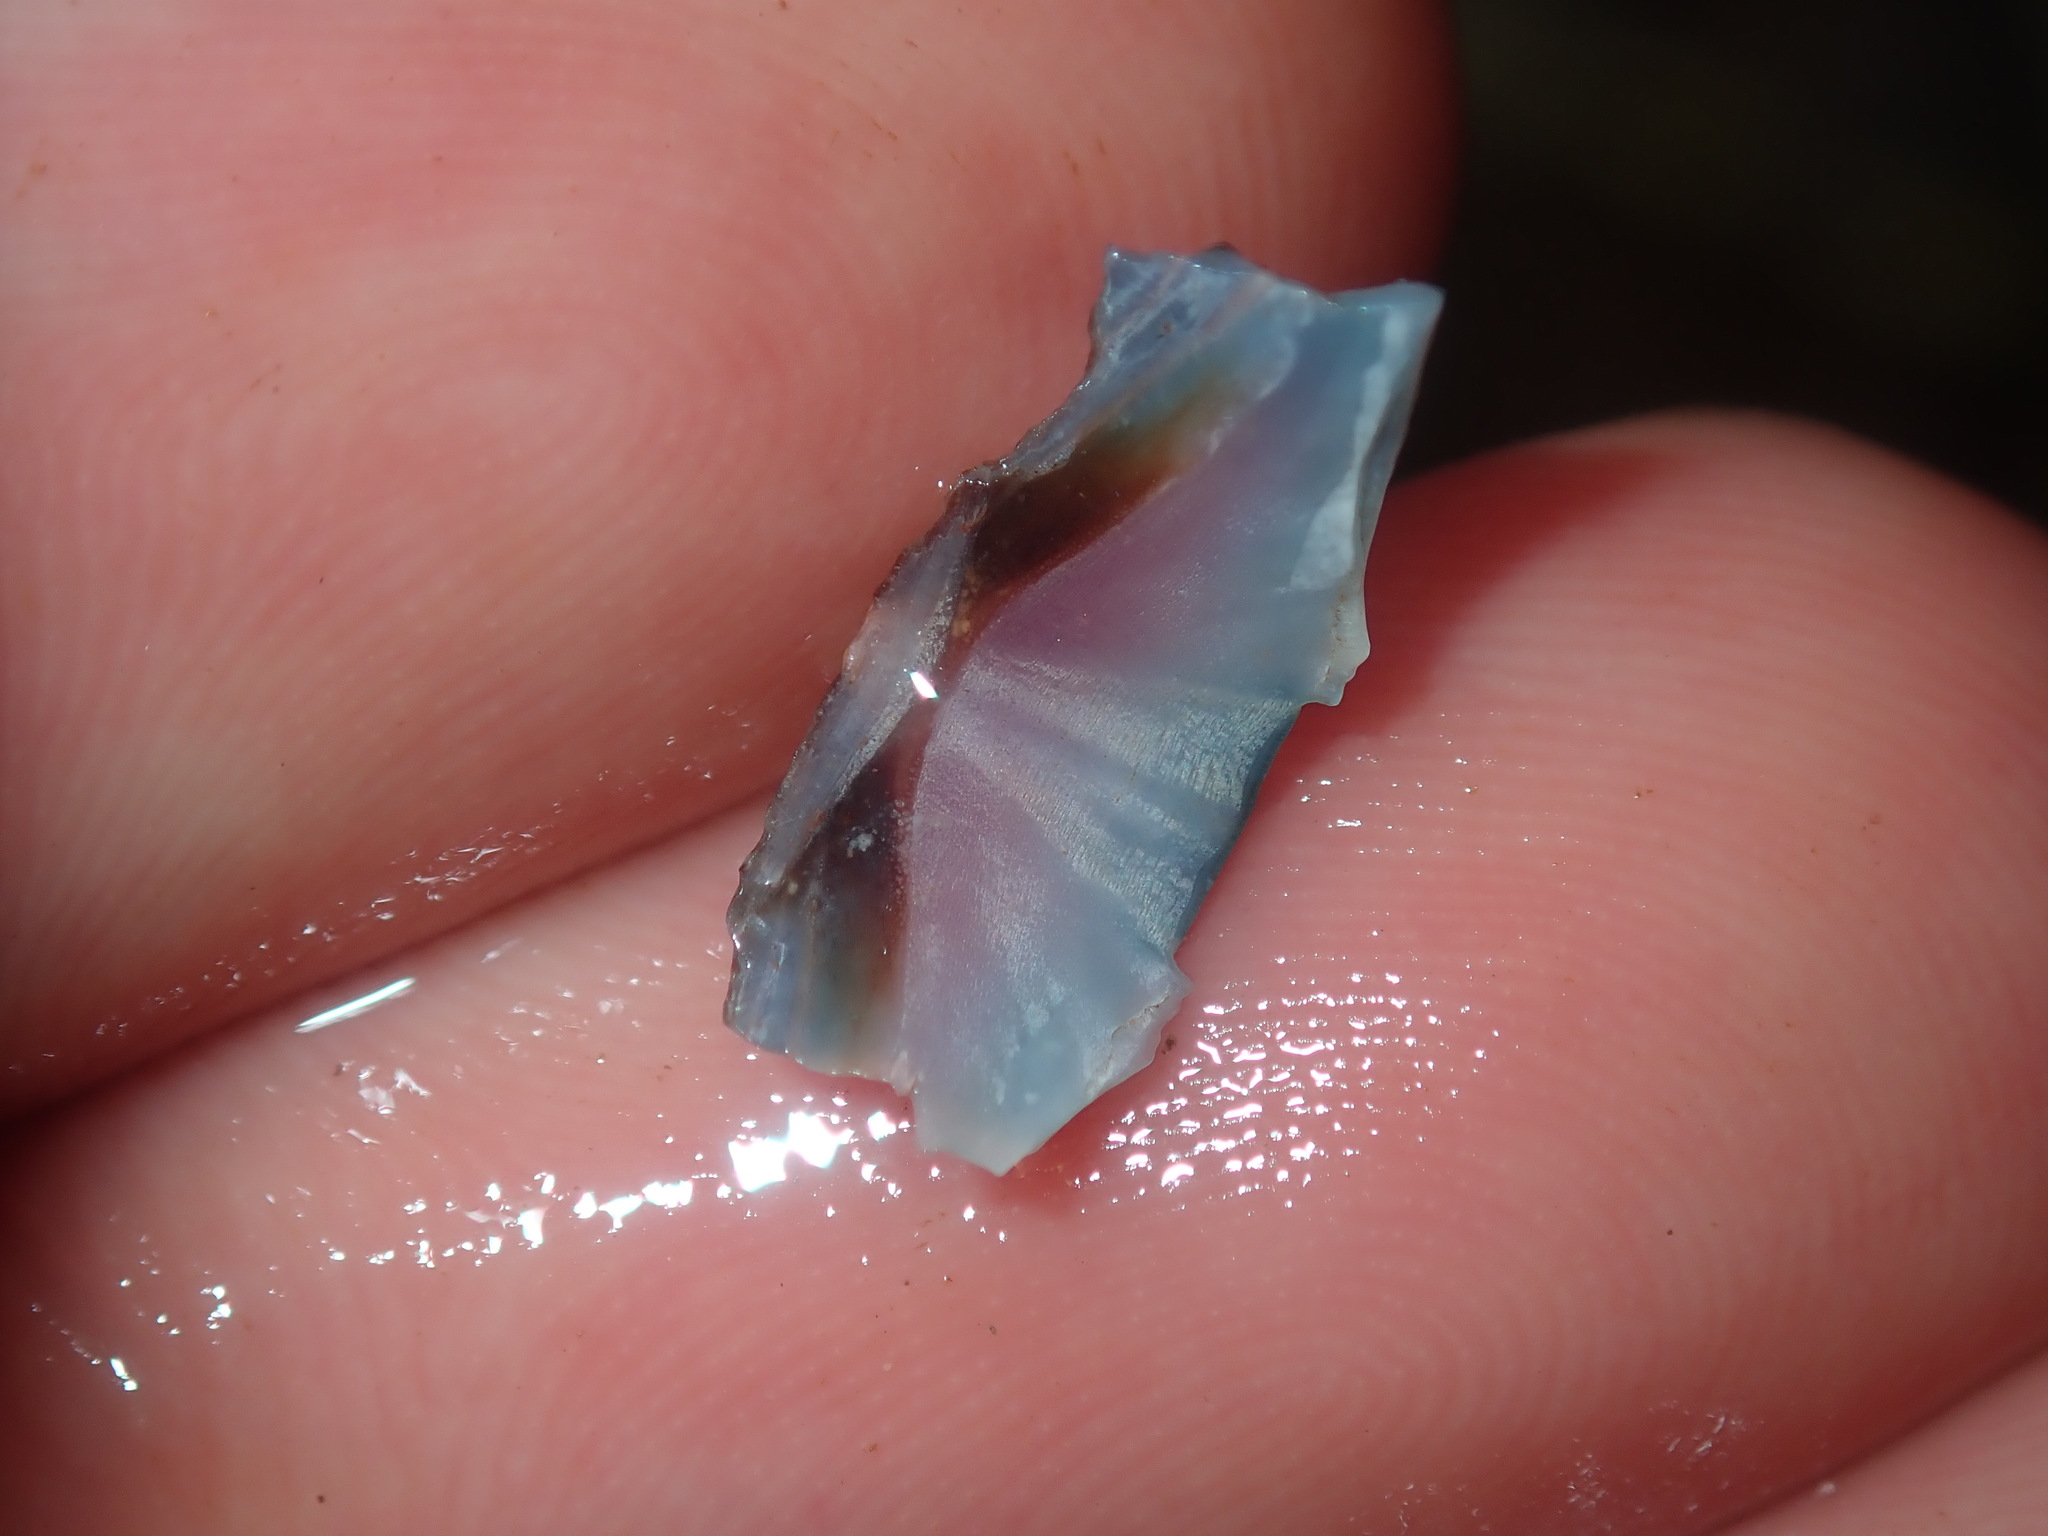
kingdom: Animalia
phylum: Mollusca
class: Polyplacophora
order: Chitonida
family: Ischnochitonidae
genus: Ischnochiton
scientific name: Ischnochiton australis
